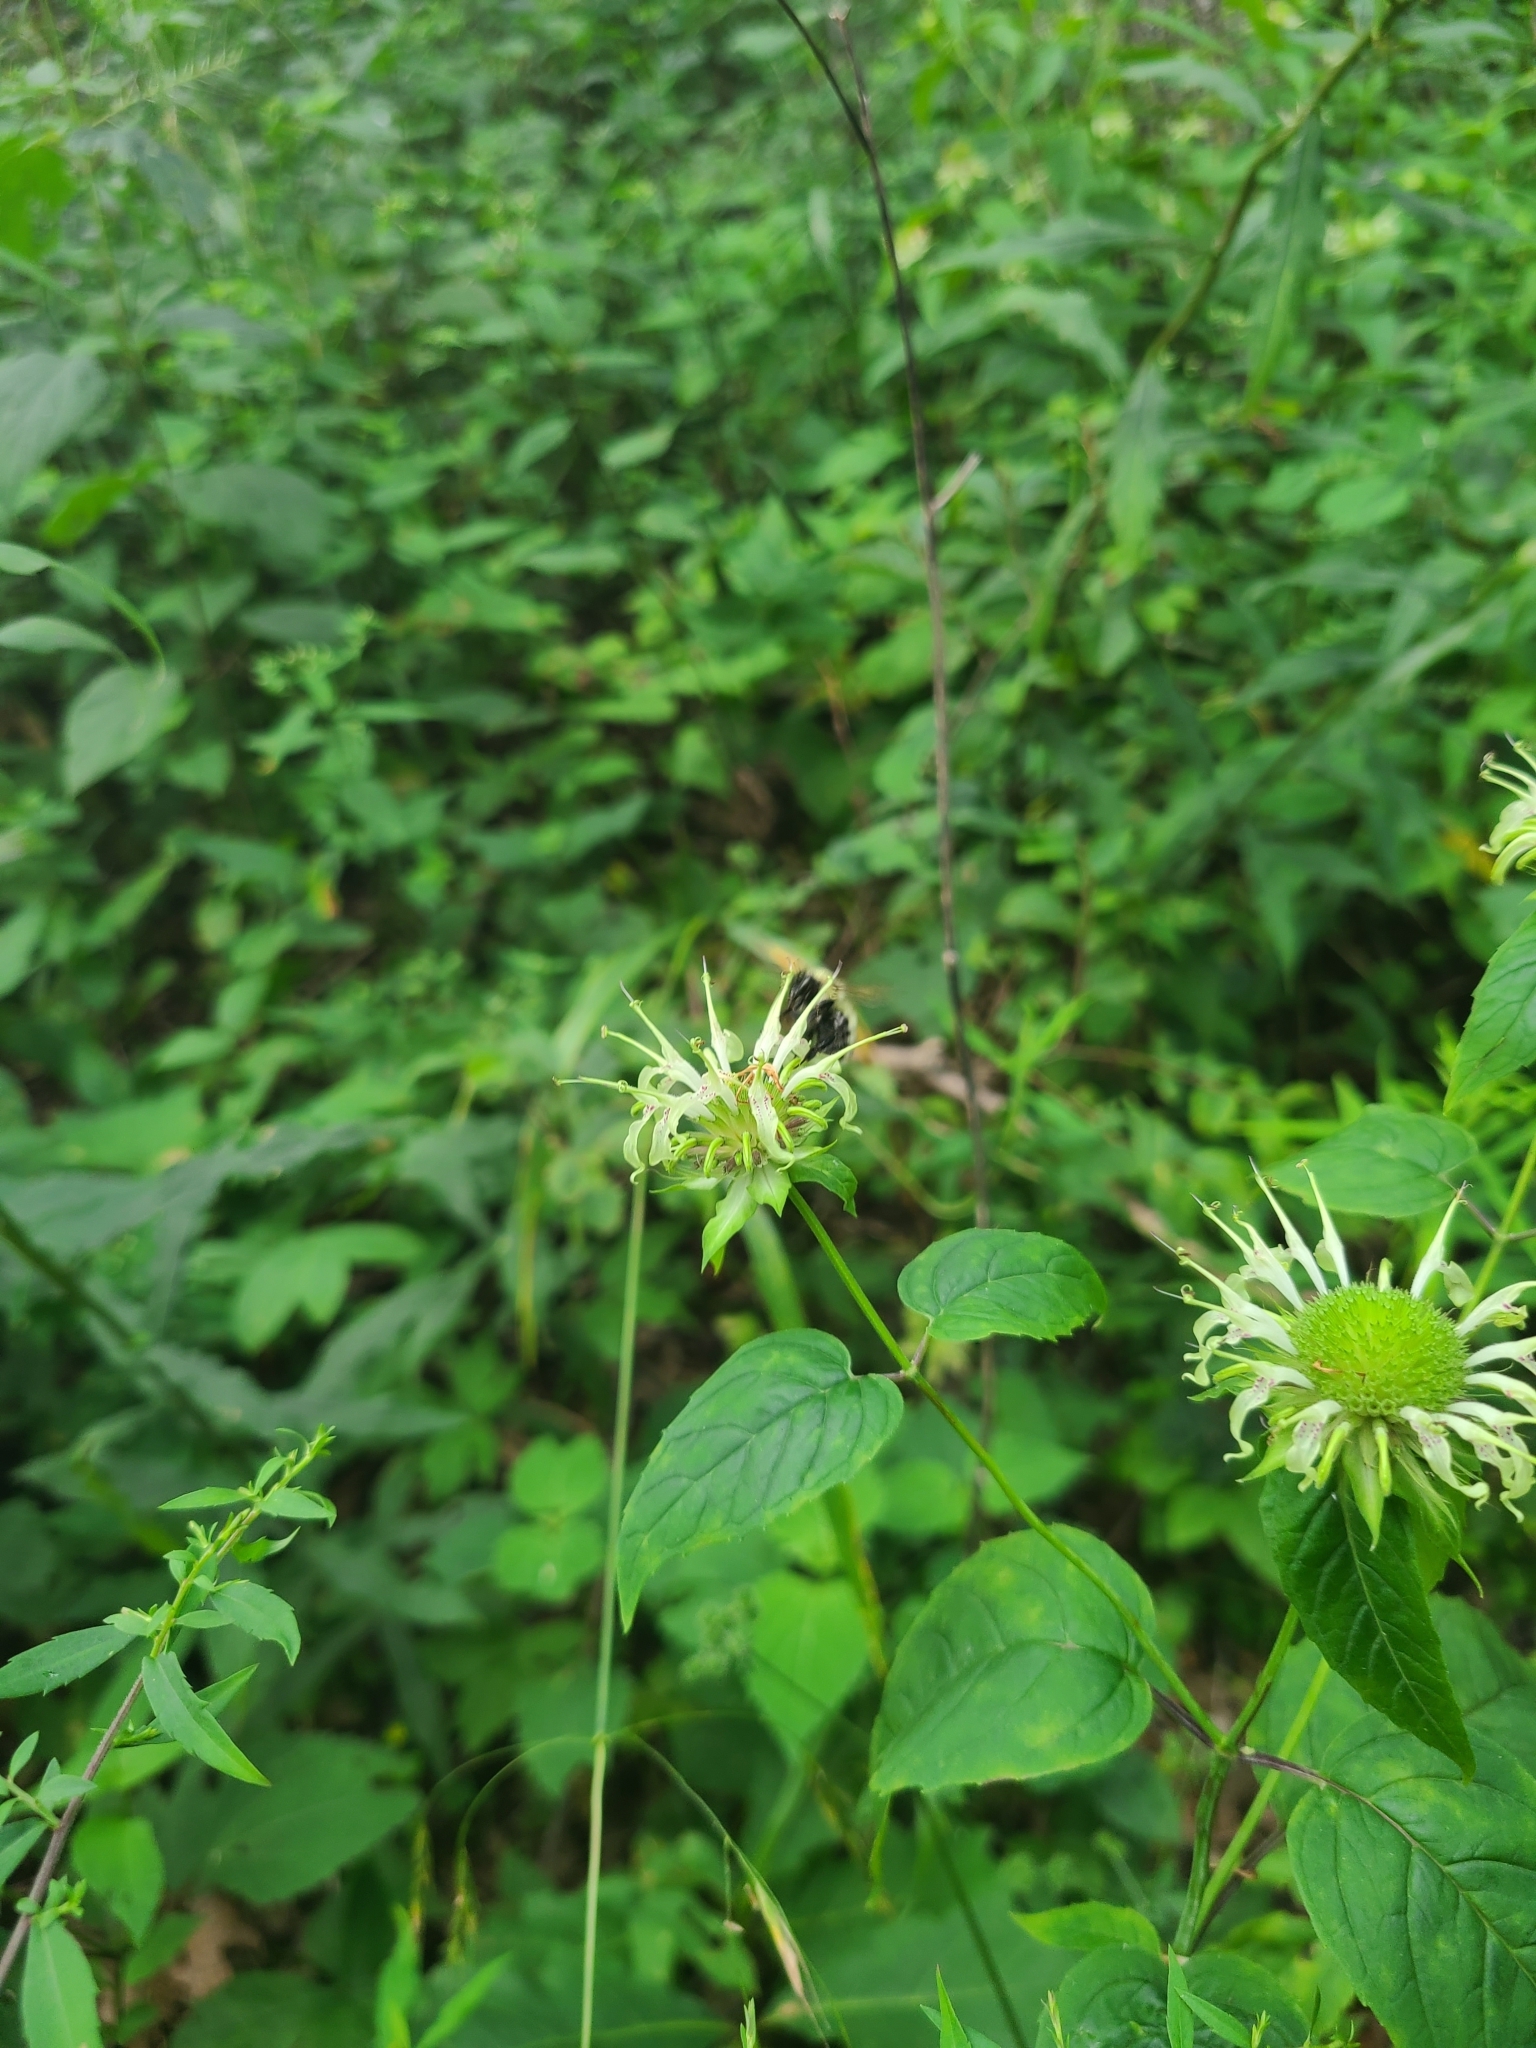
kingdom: Plantae
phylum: Tracheophyta
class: Magnoliopsida
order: Lamiales
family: Lamiaceae
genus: Monarda
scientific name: Monarda clinopodia
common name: Basil beebalm
